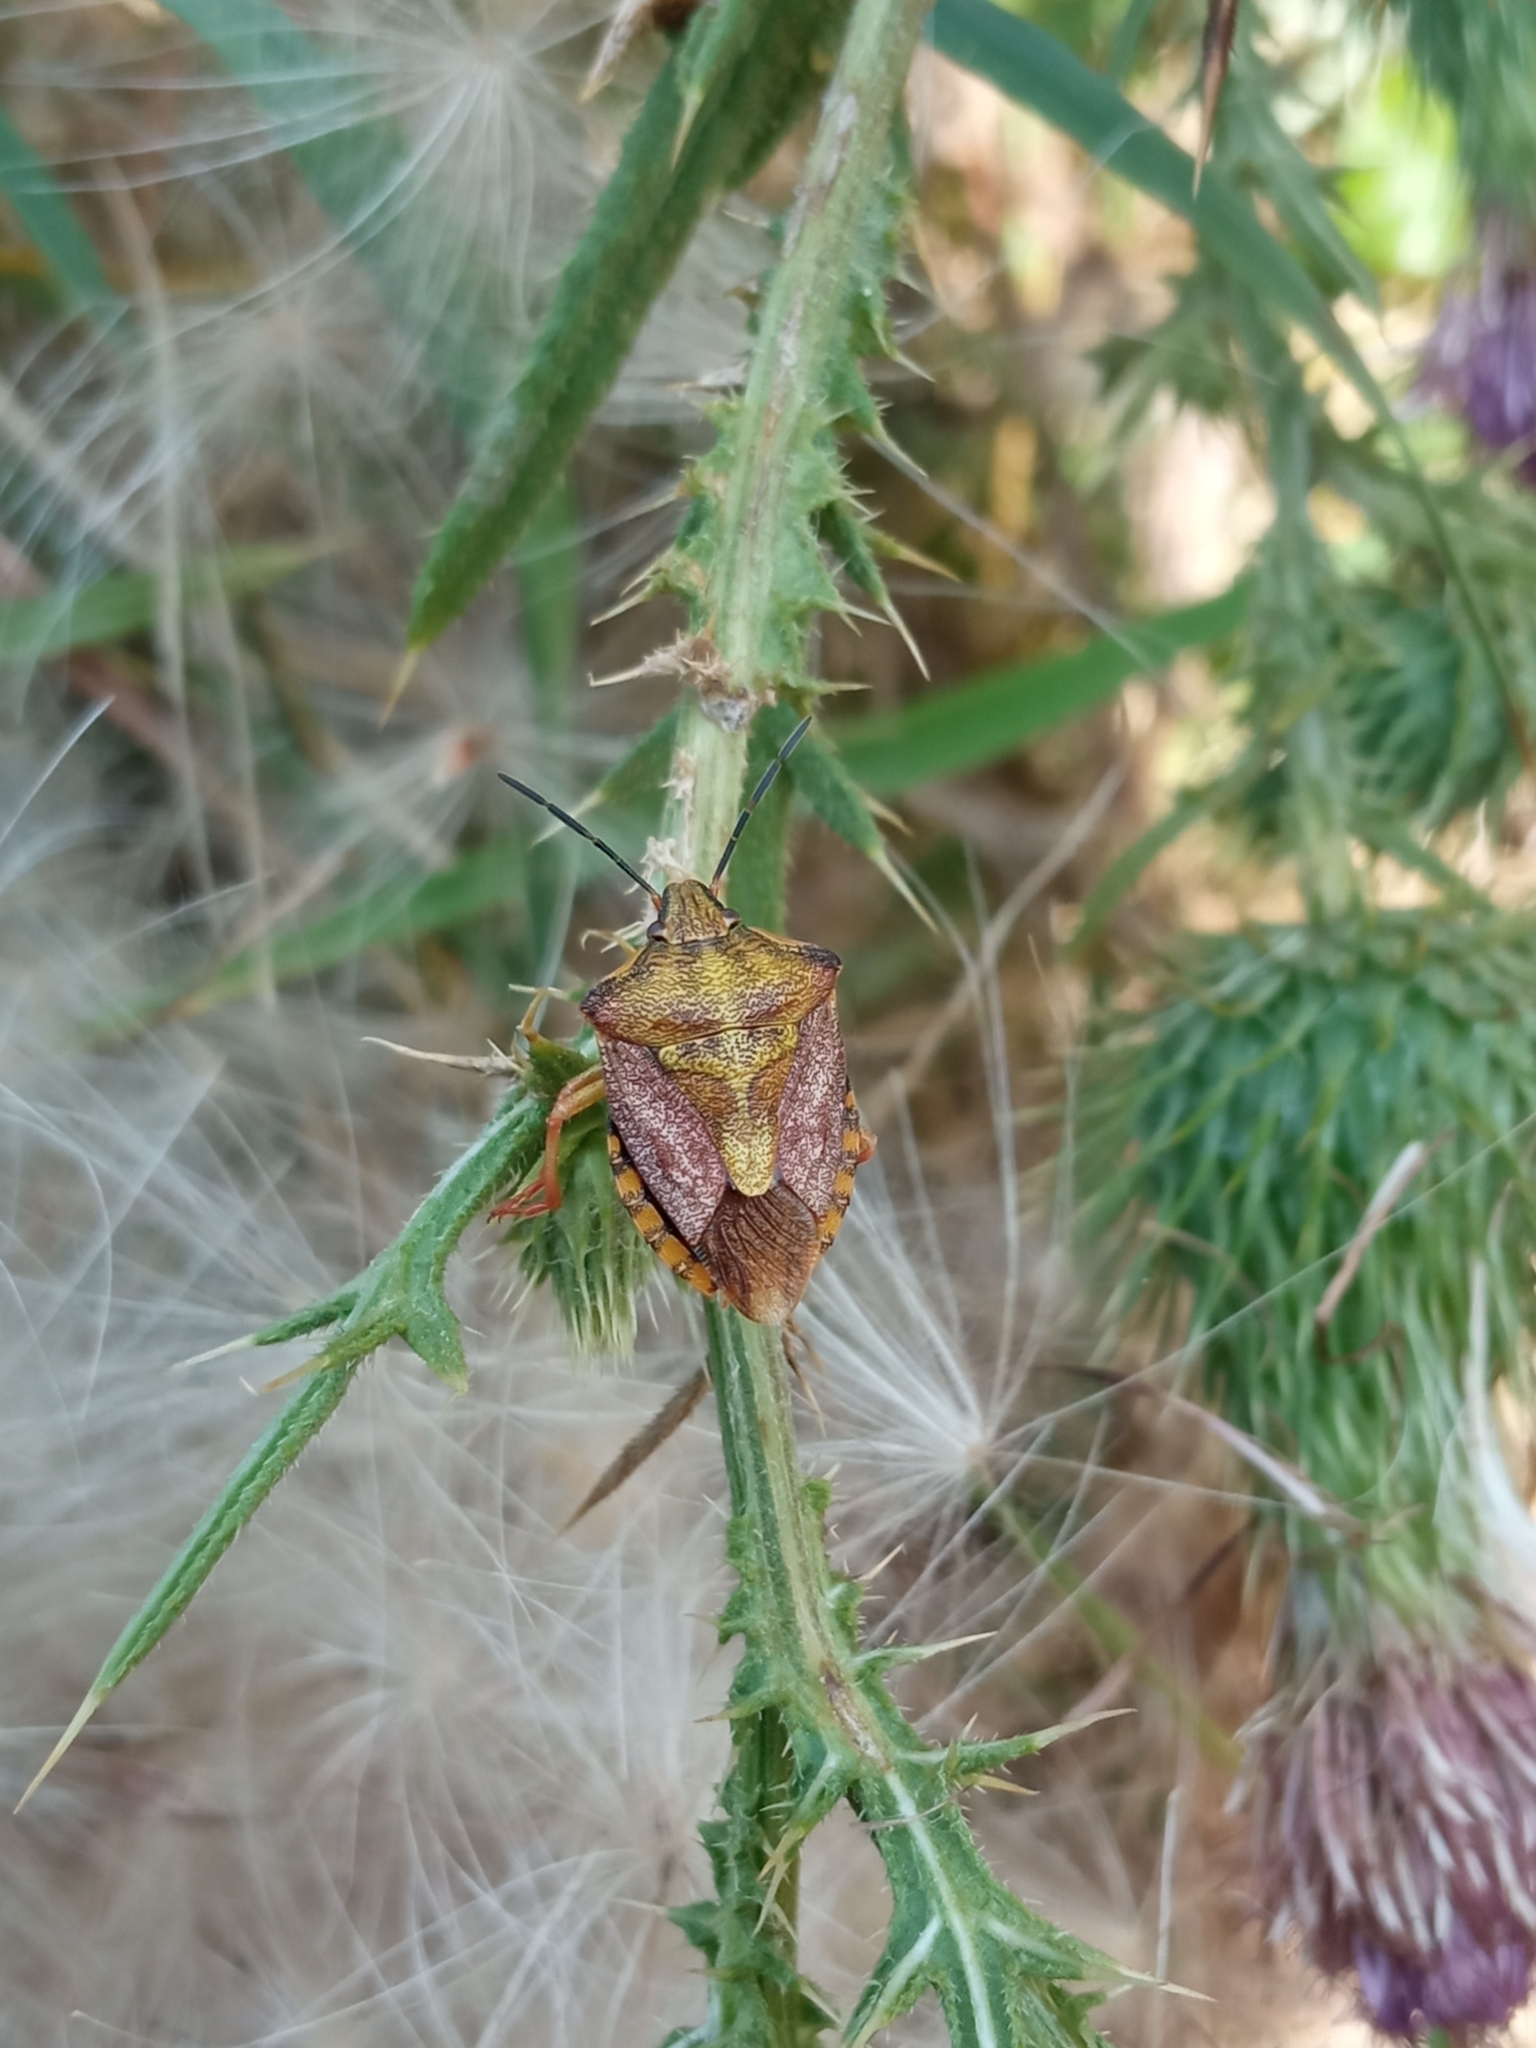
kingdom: Animalia
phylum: Arthropoda
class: Insecta
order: Hemiptera
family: Pentatomidae
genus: Carpocoris
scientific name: Carpocoris purpureipennis
